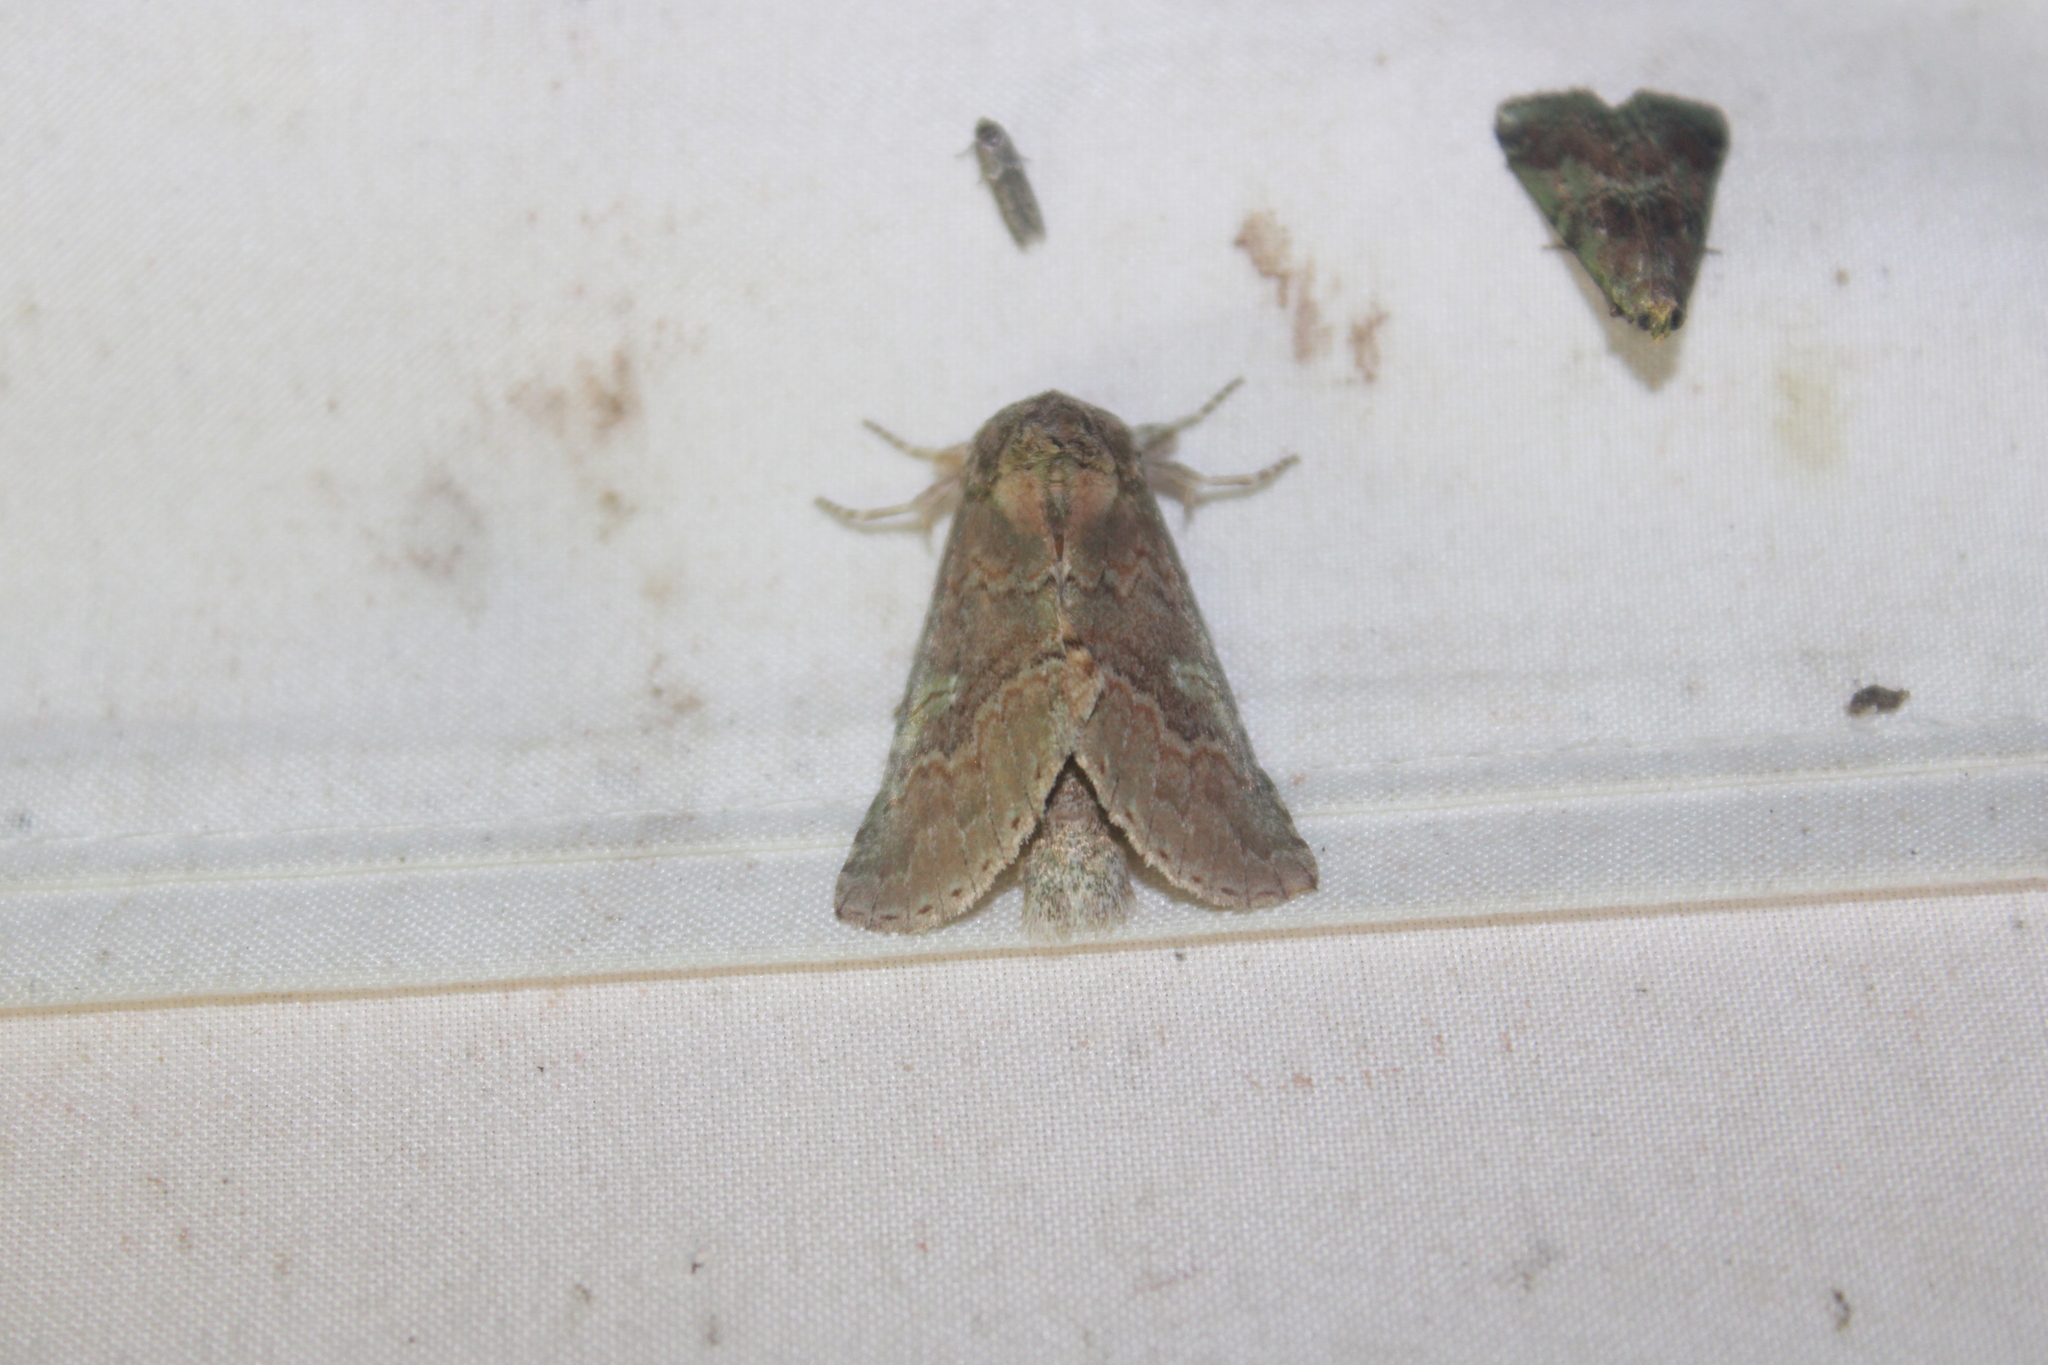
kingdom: Animalia
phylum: Arthropoda
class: Insecta
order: Lepidoptera
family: Notodontidae
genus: Macrurocampa
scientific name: Macrurocampa
